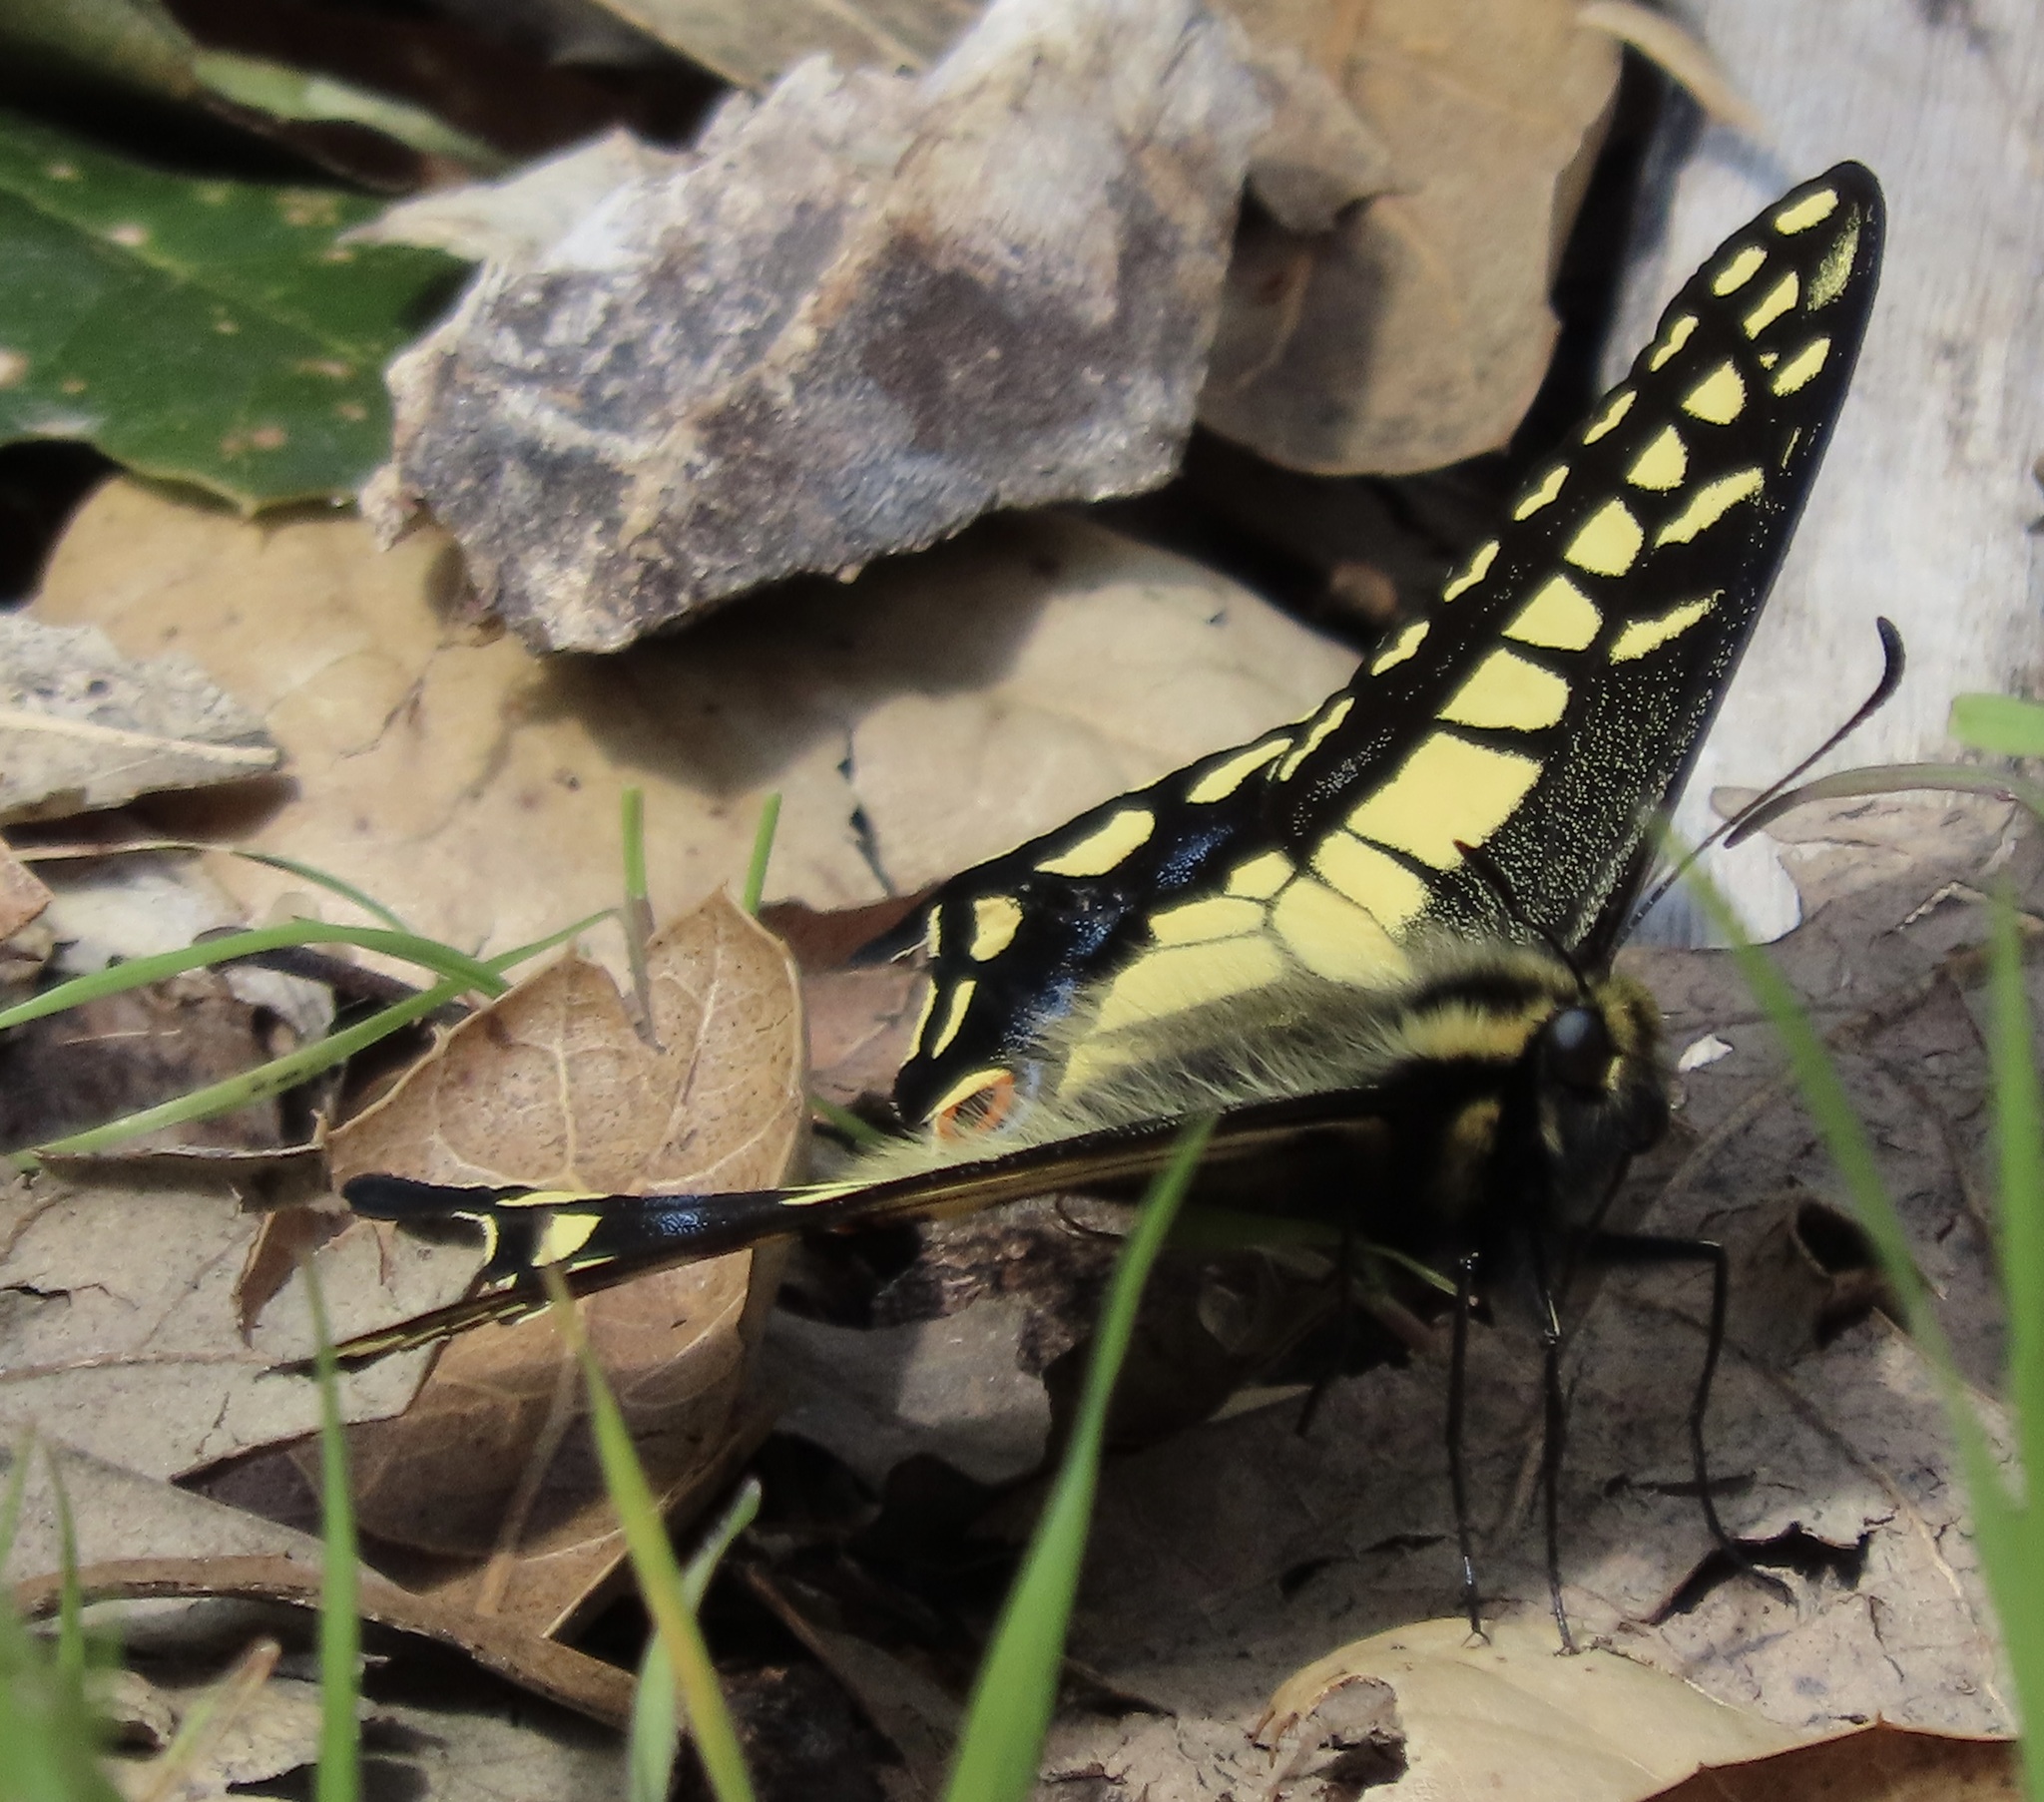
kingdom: Animalia
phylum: Arthropoda
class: Insecta
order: Lepidoptera
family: Papilionidae
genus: Papilio
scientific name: Papilio zelicaon
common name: Anise swallowtail
